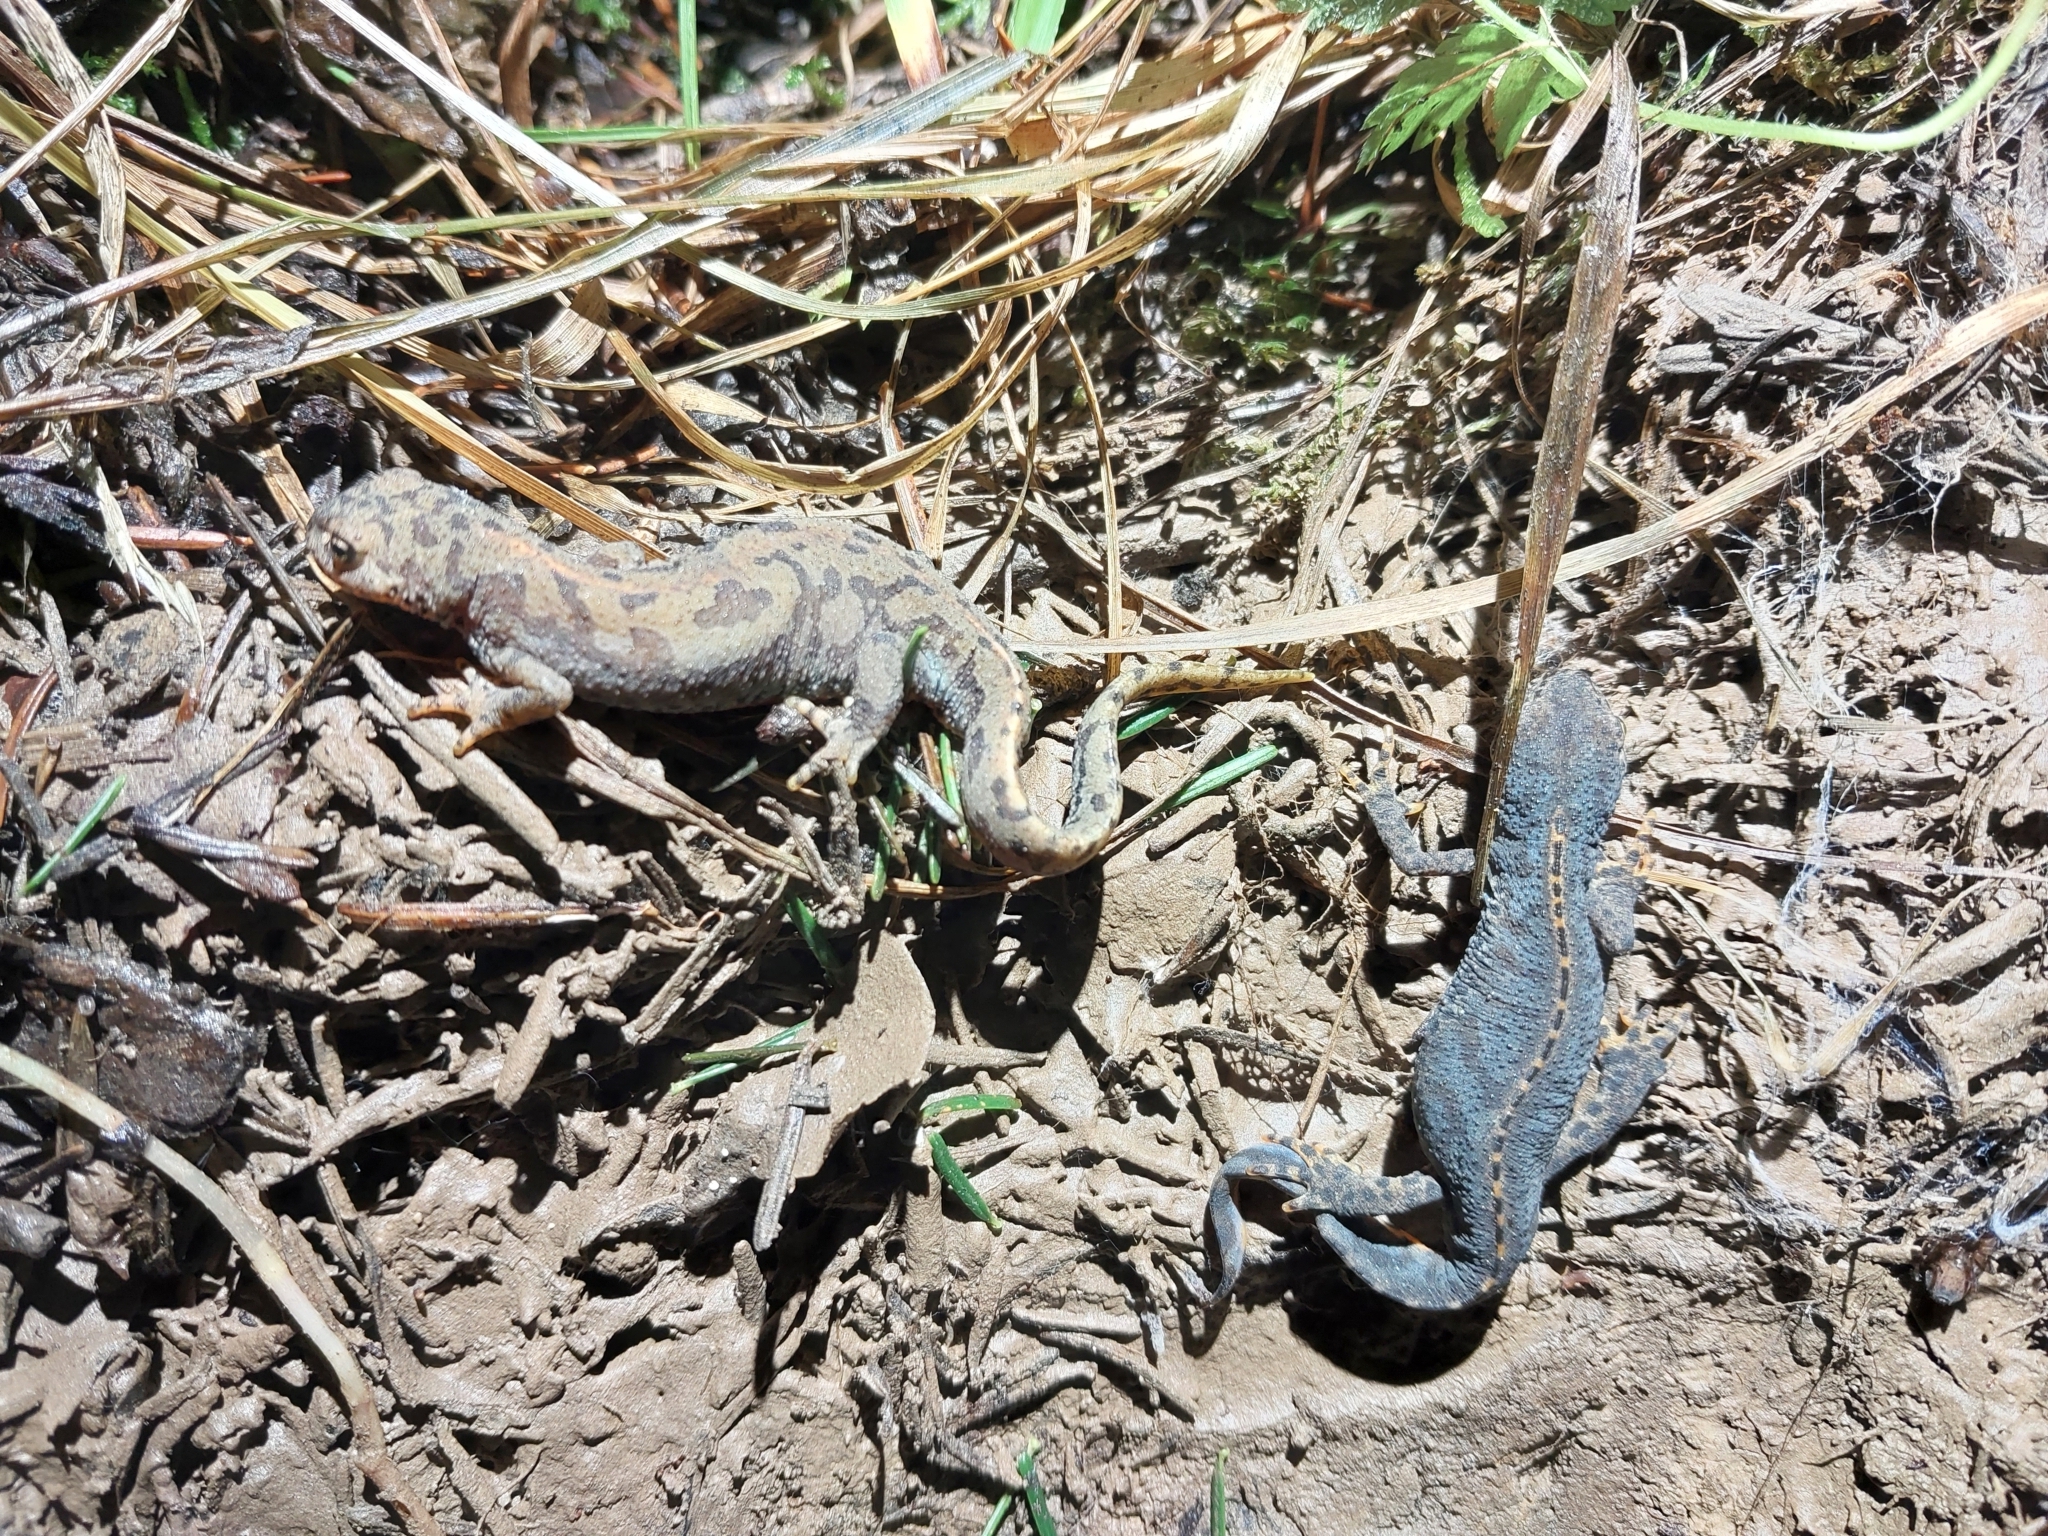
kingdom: Animalia
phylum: Chordata
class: Amphibia
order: Caudata
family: Salamandridae
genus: Ichthyosaura
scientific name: Ichthyosaura alpestris
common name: Alpine newt
